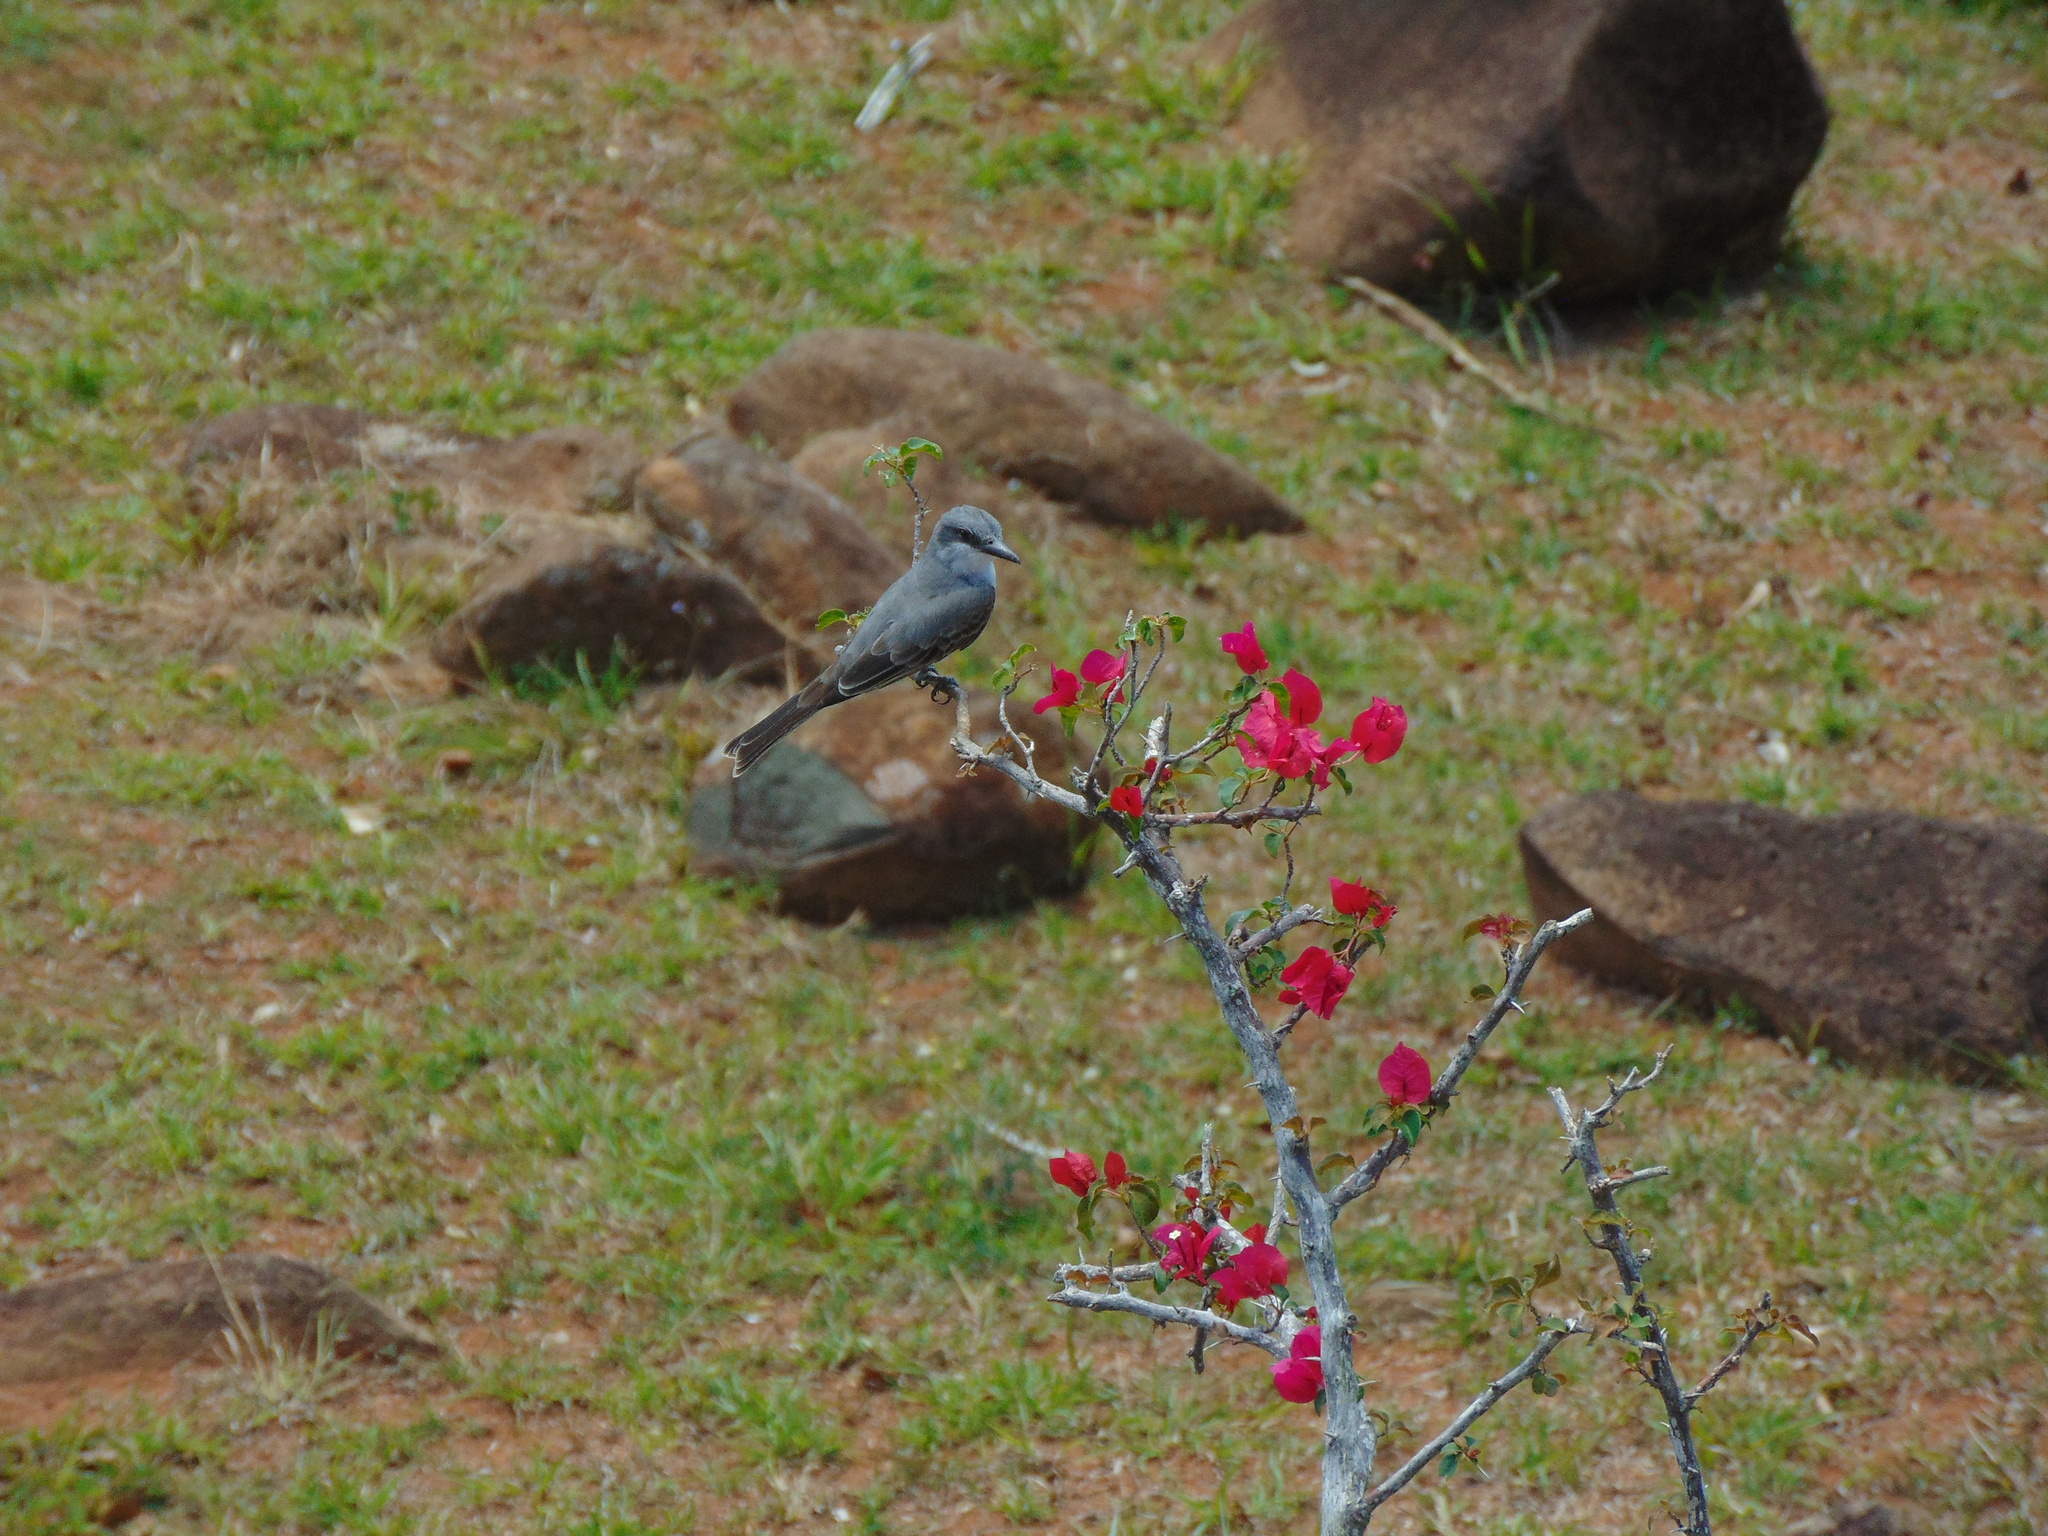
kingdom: Animalia
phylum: Chordata
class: Aves
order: Passeriformes
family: Tyrannidae
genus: Tyrannus
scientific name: Tyrannus dominicensis
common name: Gray kingbird
